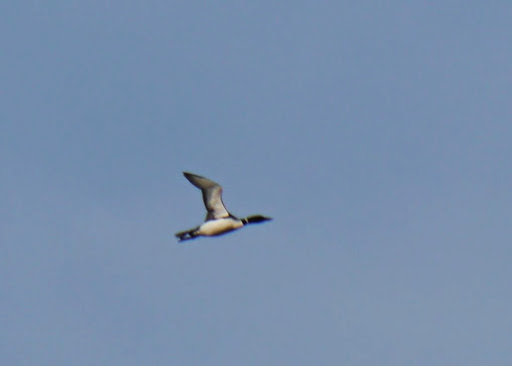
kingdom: Animalia
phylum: Chordata
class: Aves
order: Gaviiformes
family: Gaviidae
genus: Gavia
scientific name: Gavia immer
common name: Common loon
